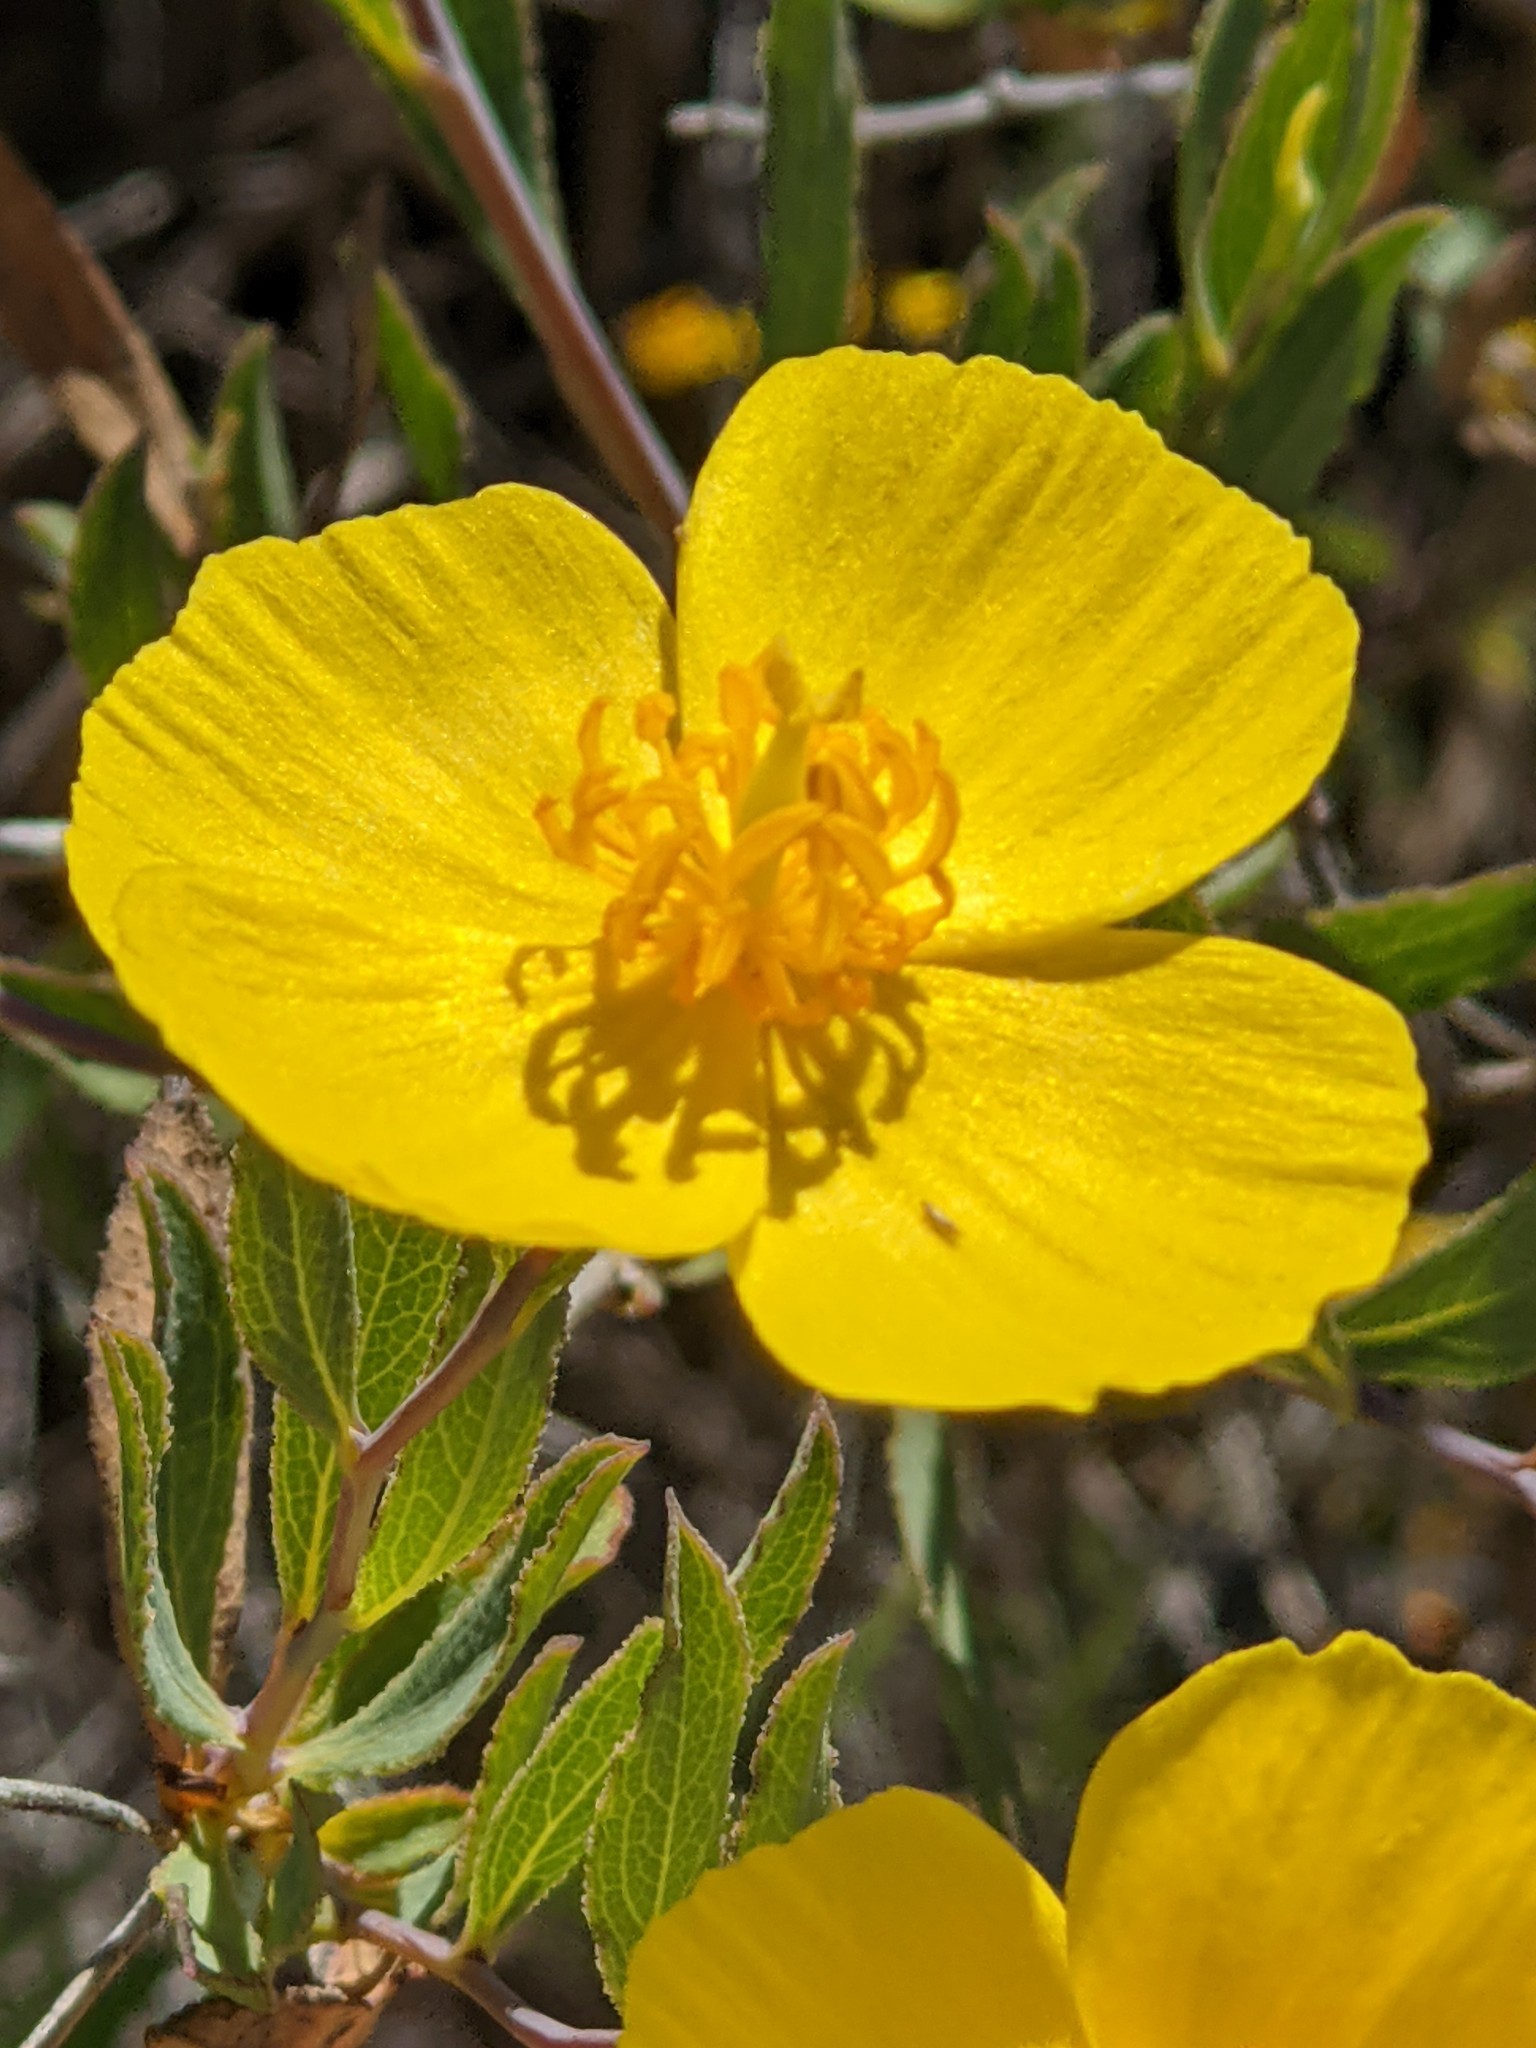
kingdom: Plantae
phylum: Tracheophyta
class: Magnoliopsida
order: Ranunculales
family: Papaveraceae
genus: Dendromecon
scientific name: Dendromecon rigida
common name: Tree poppy
